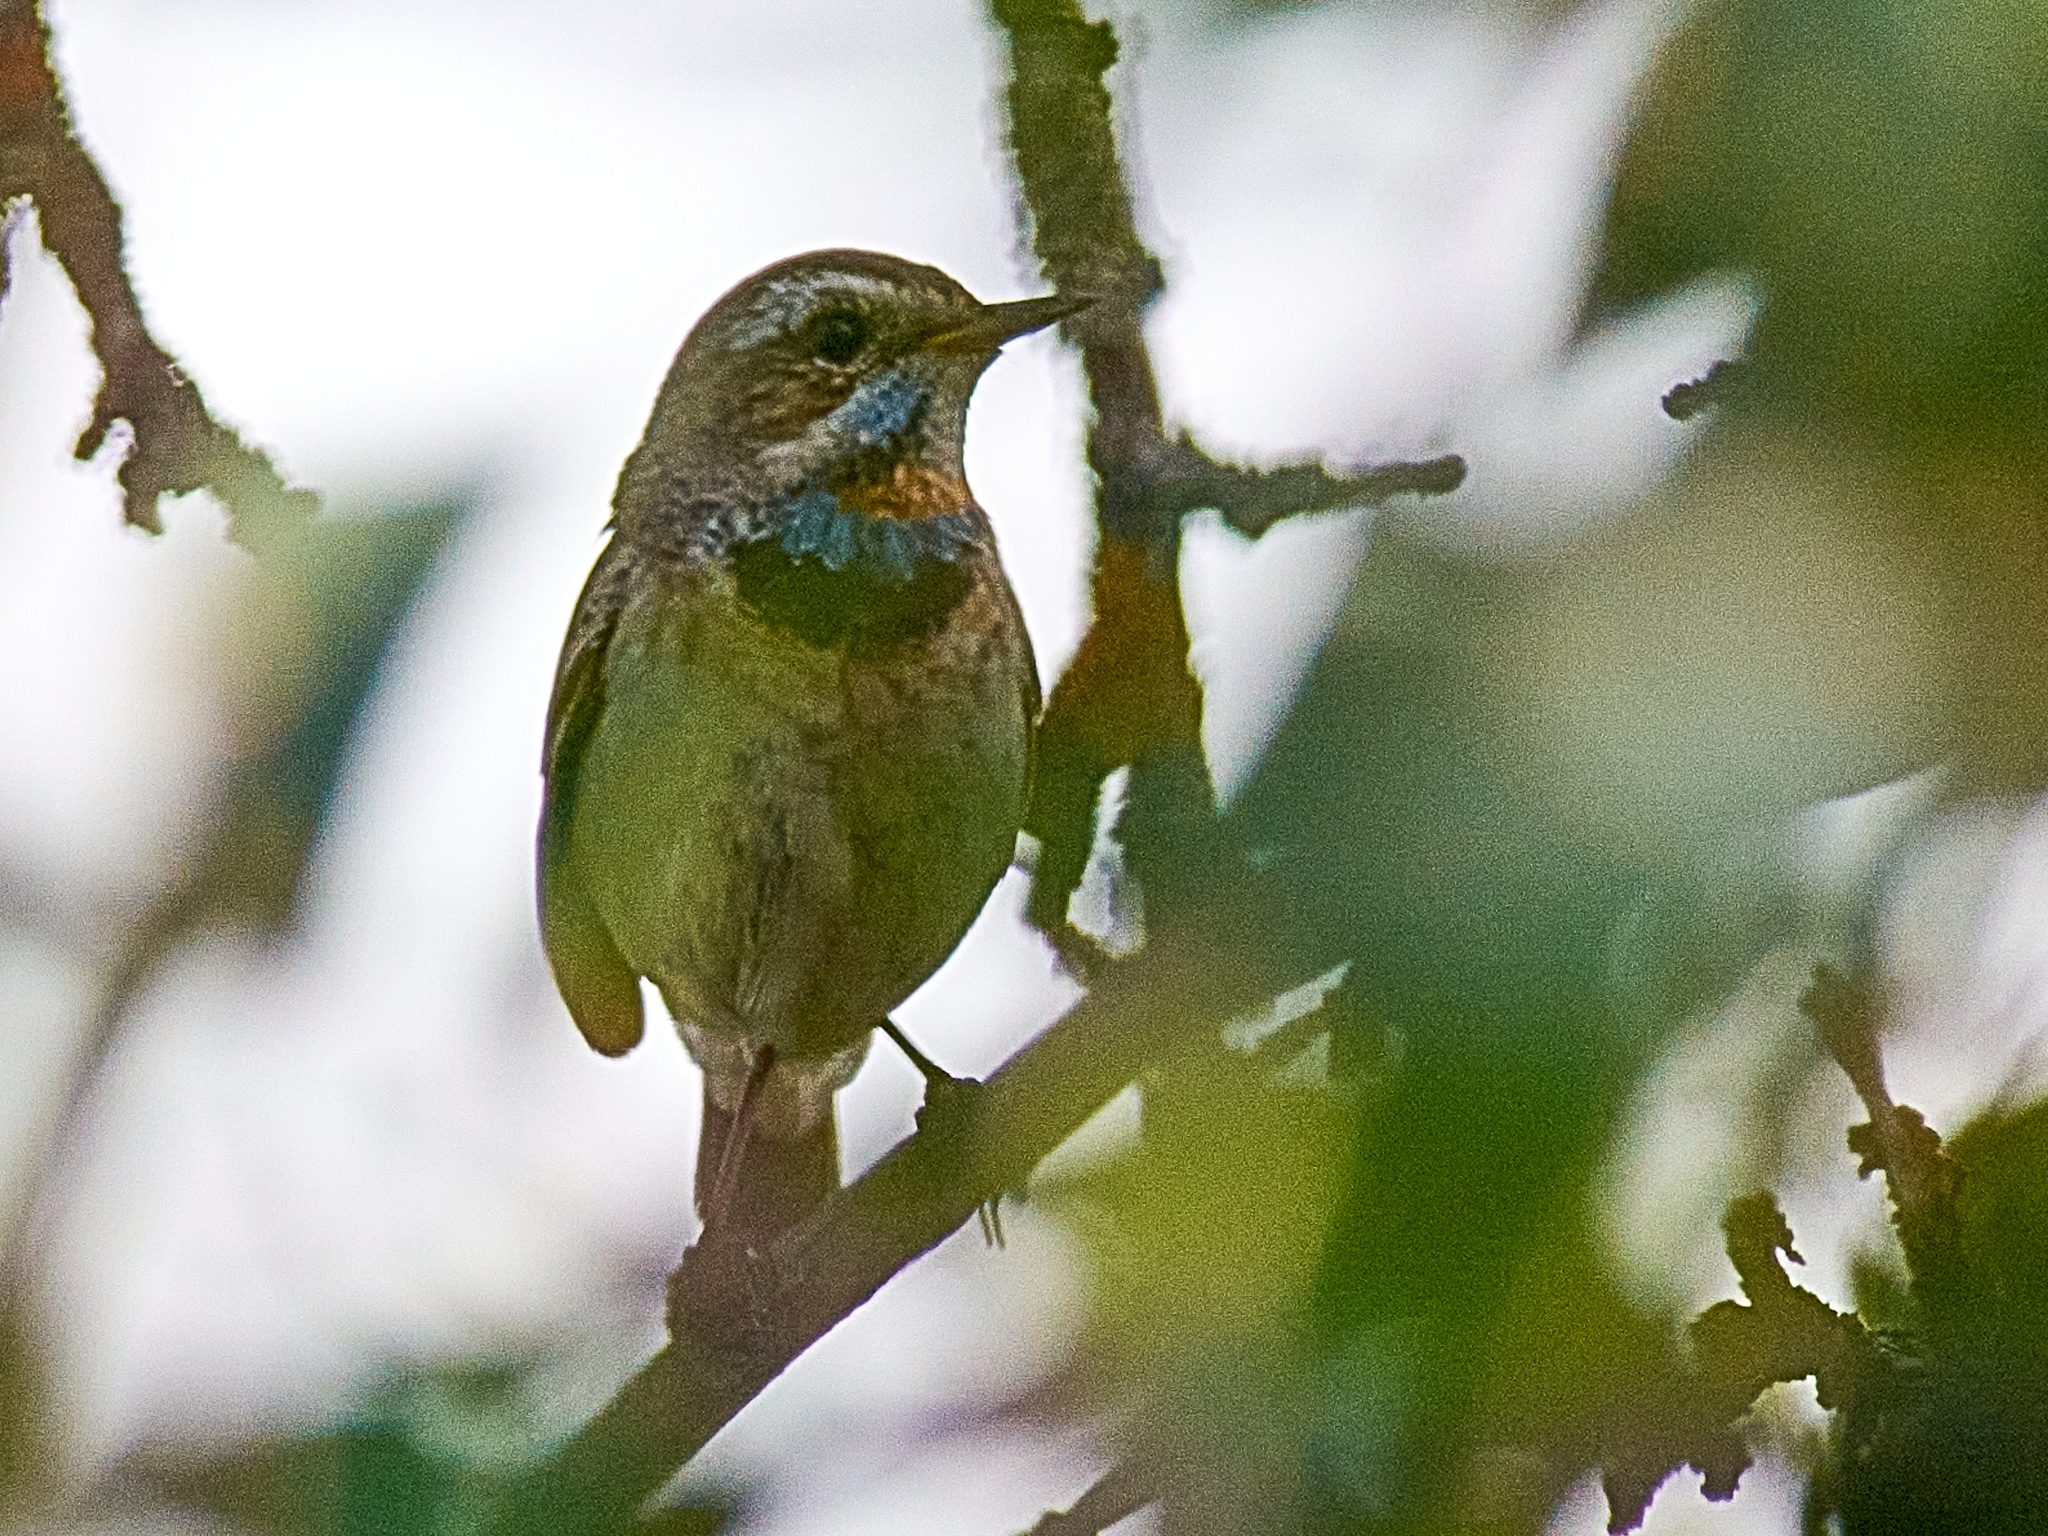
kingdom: Animalia
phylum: Chordata
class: Aves
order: Passeriformes
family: Muscicapidae
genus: Luscinia
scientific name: Luscinia svecica
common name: Bluethroat
